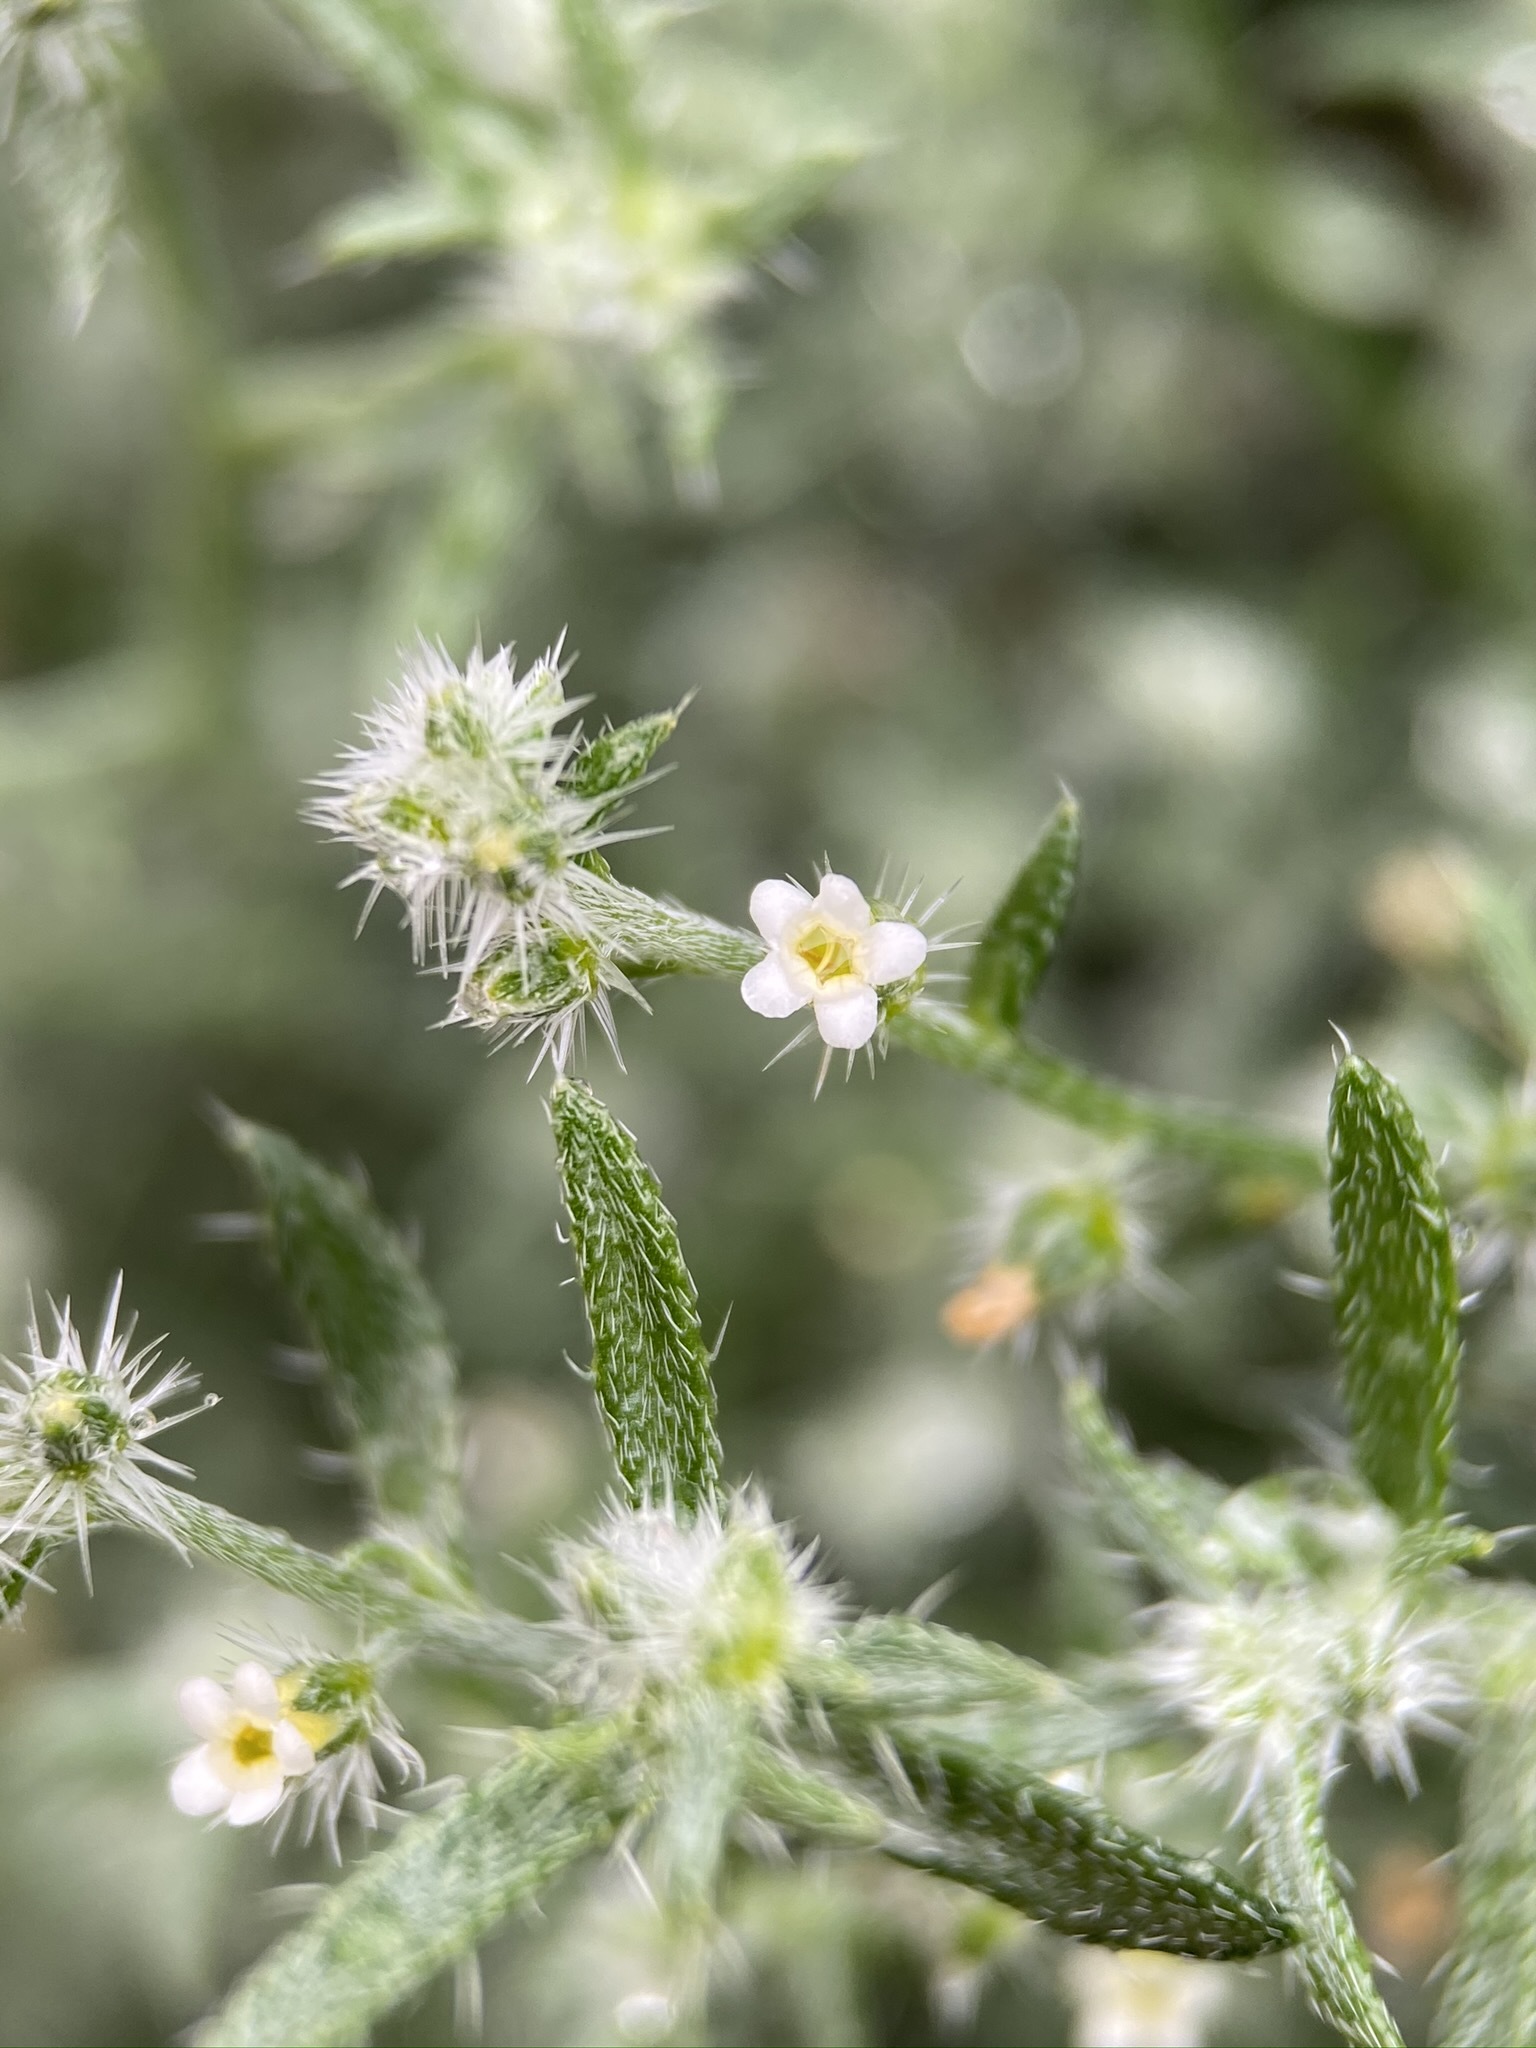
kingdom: Plantae
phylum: Tracheophyta
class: Magnoliopsida
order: Boraginales
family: Boraginaceae
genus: Johnstonella
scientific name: Johnstonella racemosa
